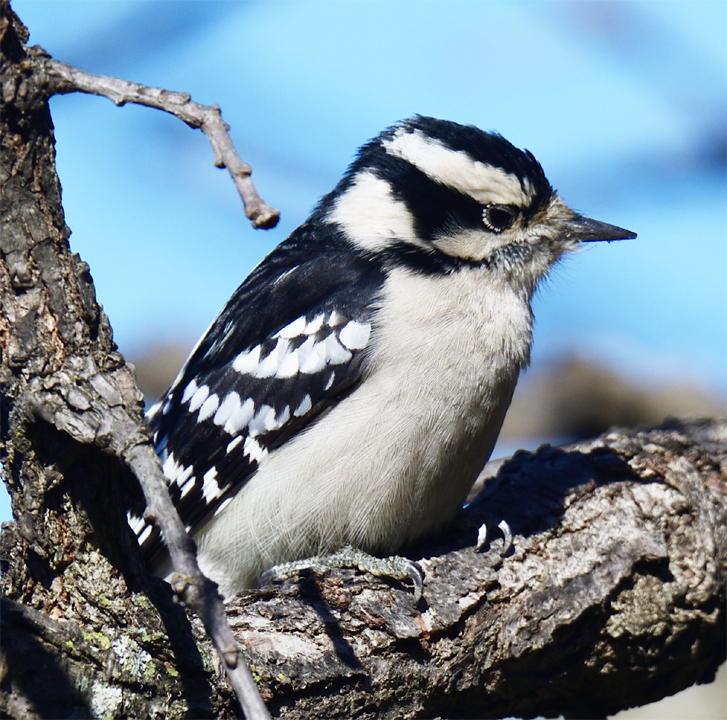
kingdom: Animalia
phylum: Chordata
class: Aves
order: Piciformes
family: Picidae
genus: Dryobates
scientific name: Dryobates pubescens
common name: Downy woodpecker
